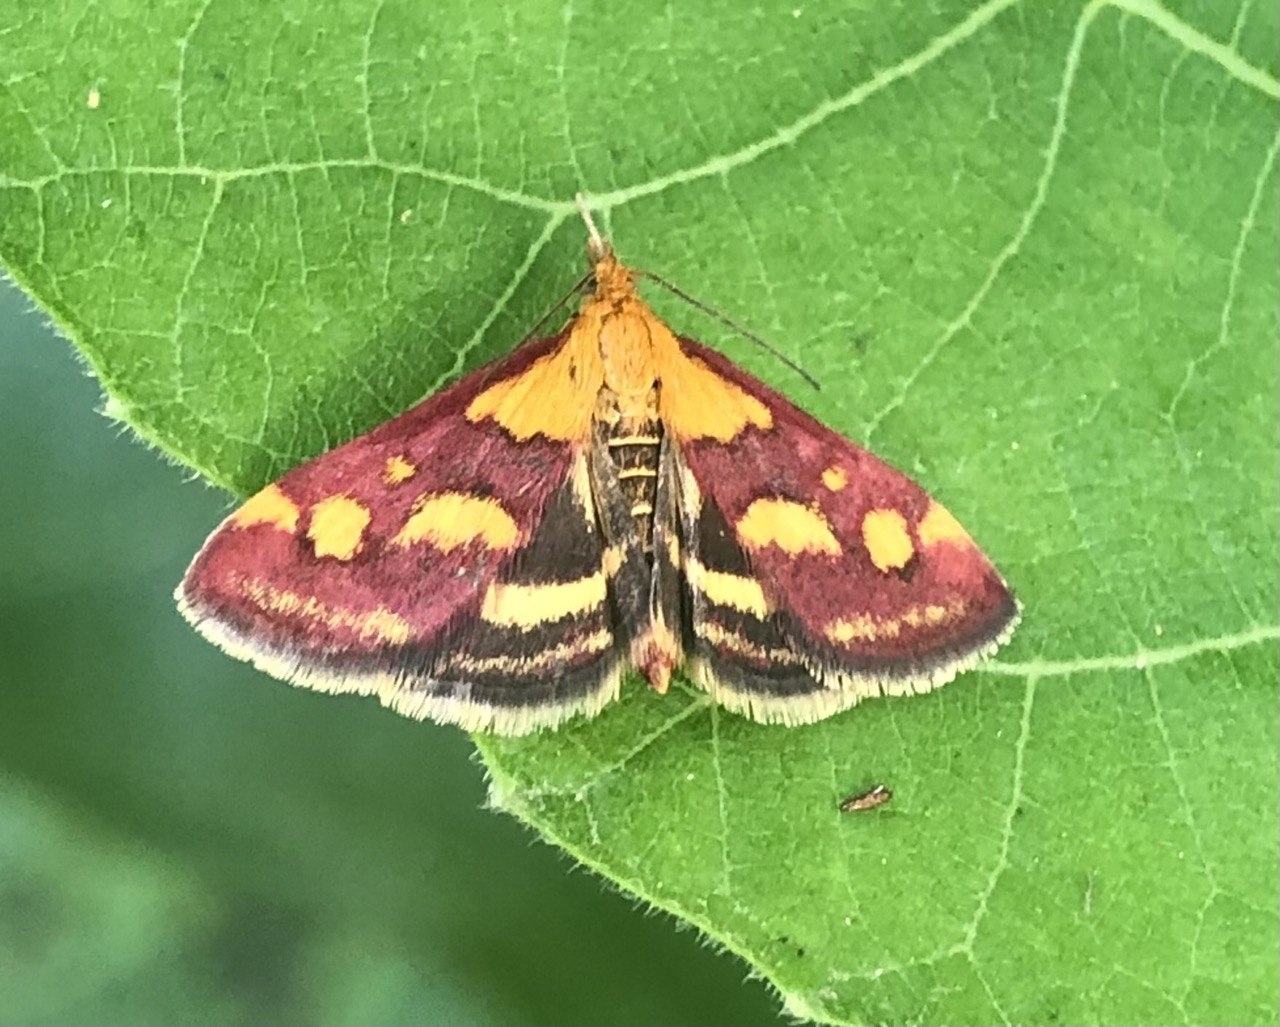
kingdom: Animalia
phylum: Arthropoda
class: Insecta
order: Lepidoptera
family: Crambidae
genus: Pyrausta
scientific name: Pyrausta purpuralis
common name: Common purple & gold
